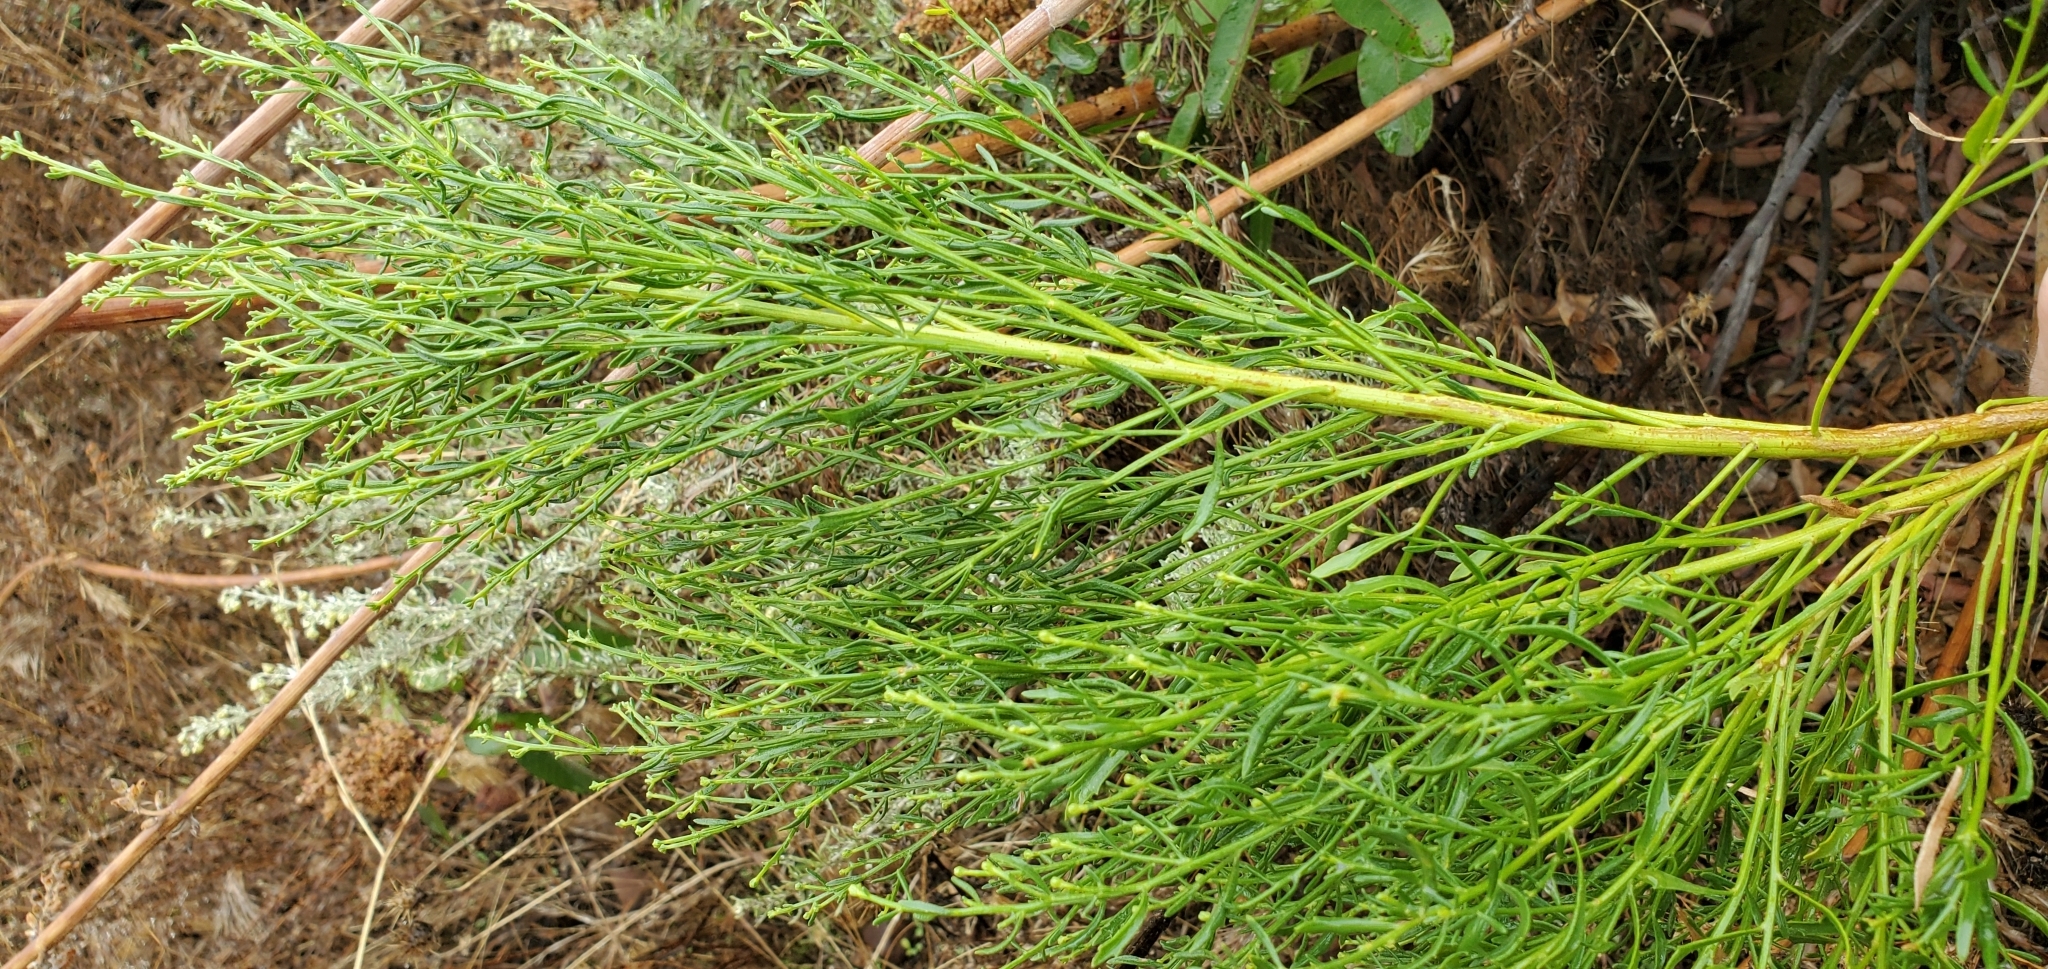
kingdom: Plantae
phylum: Tracheophyta
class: Magnoliopsida
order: Asterales
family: Asteraceae
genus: Baccharis
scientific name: Baccharis sarothroides
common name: Desert-broom
